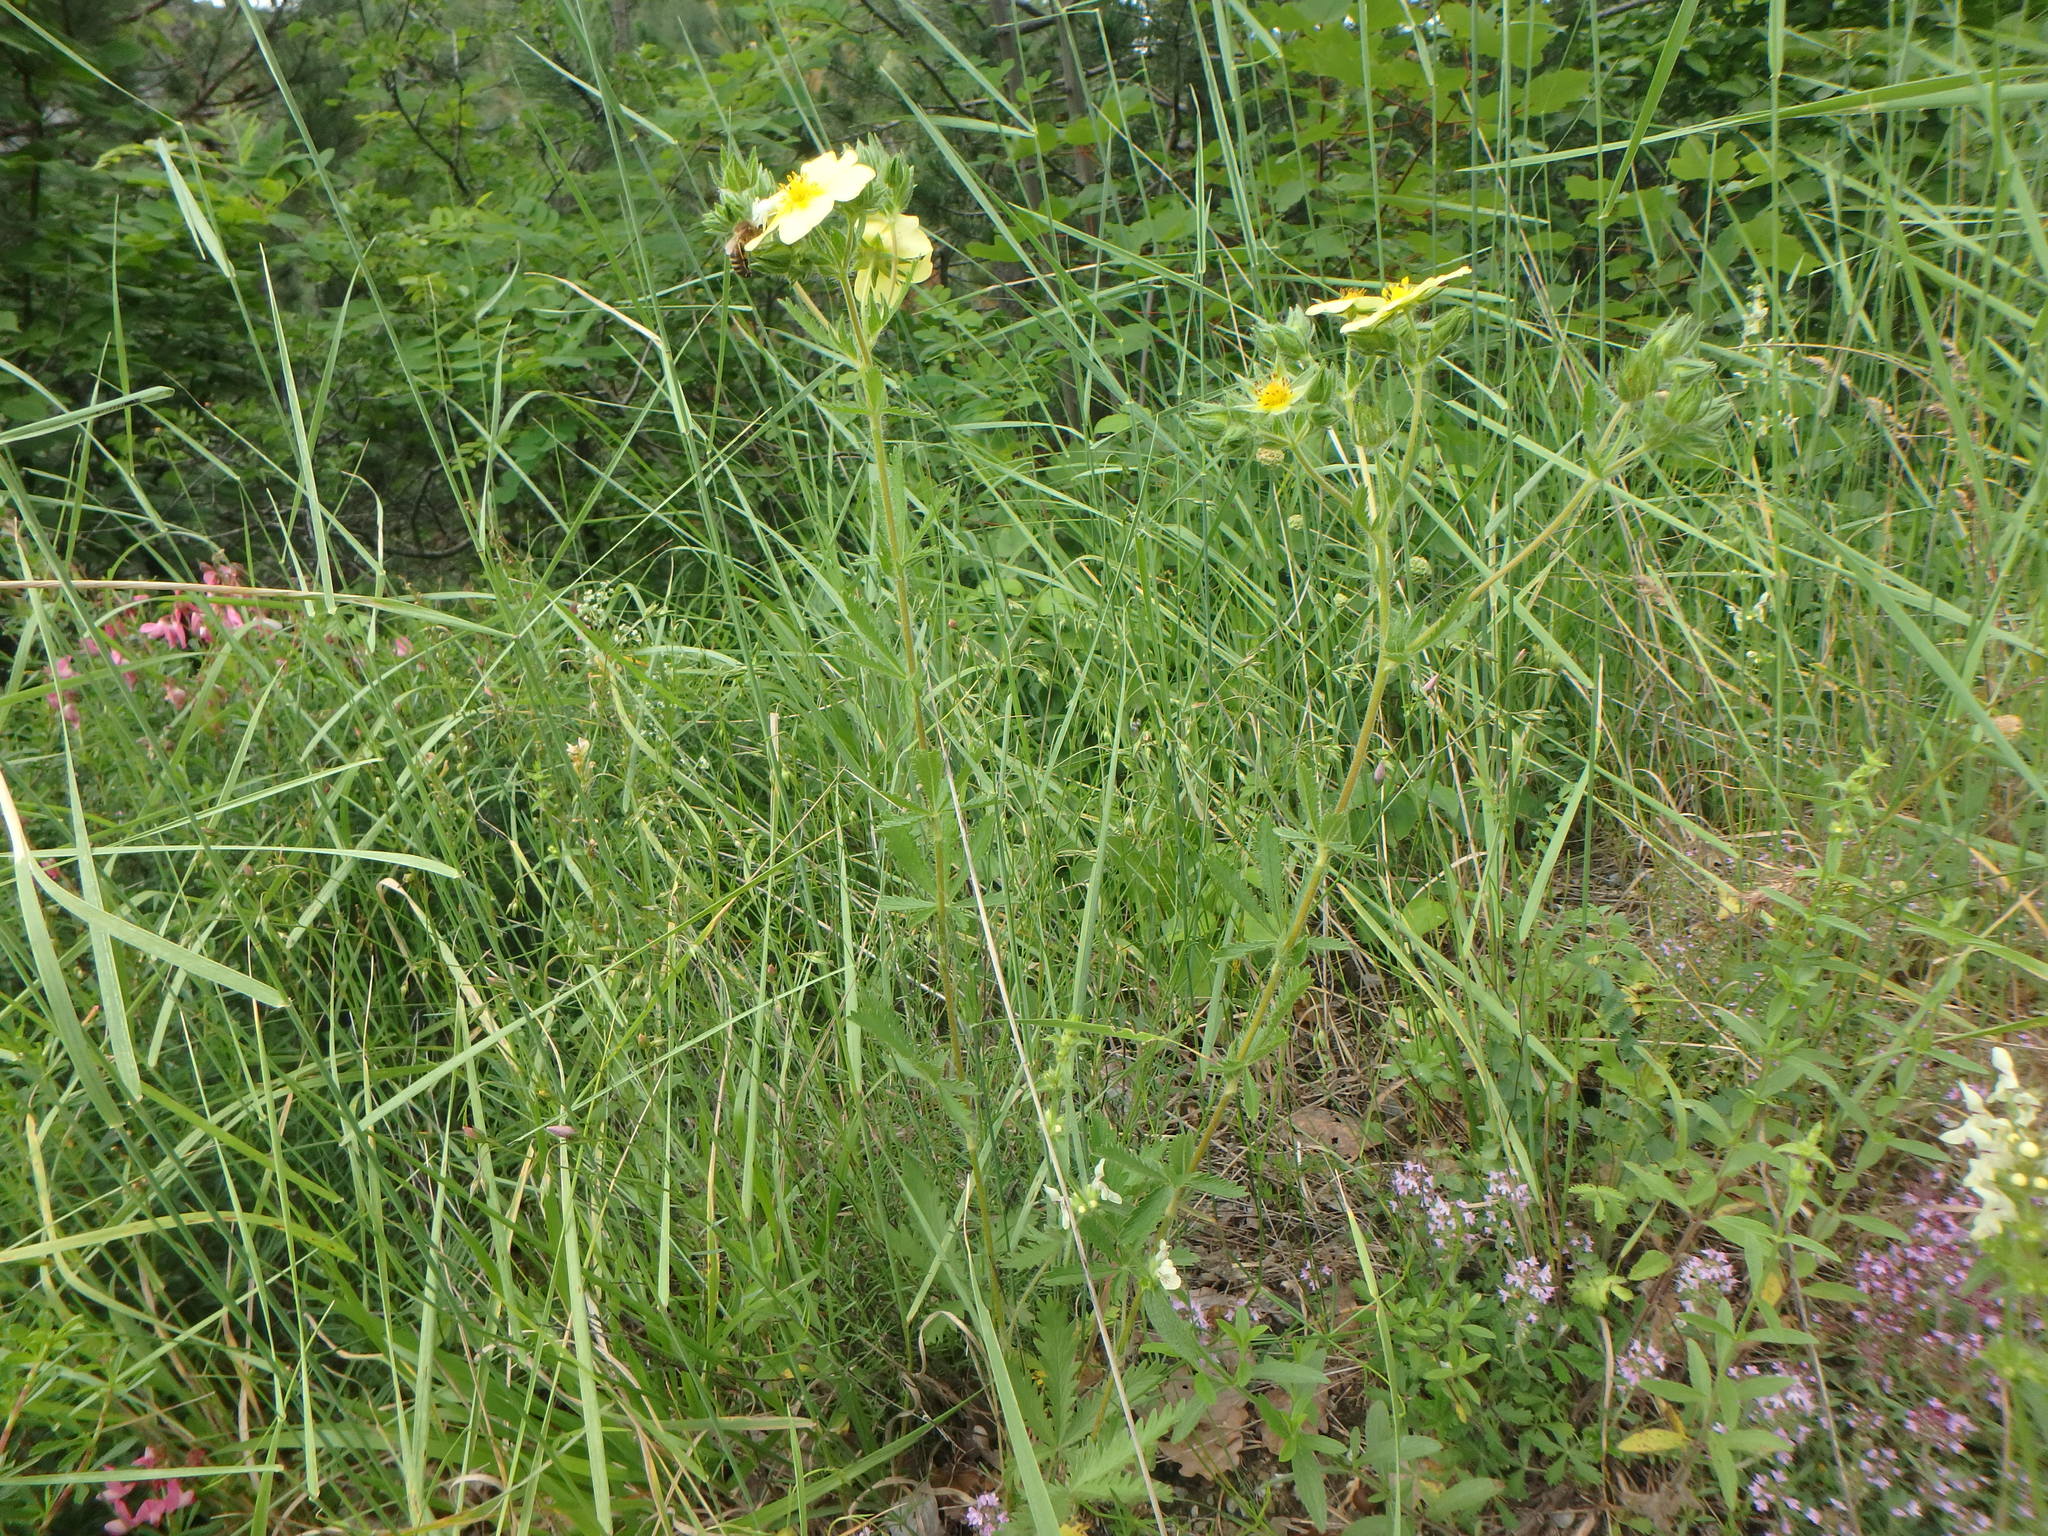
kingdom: Plantae
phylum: Tracheophyta
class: Magnoliopsida
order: Rosales
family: Rosaceae
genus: Potentilla
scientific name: Potentilla recta
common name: Sulphur cinquefoil
